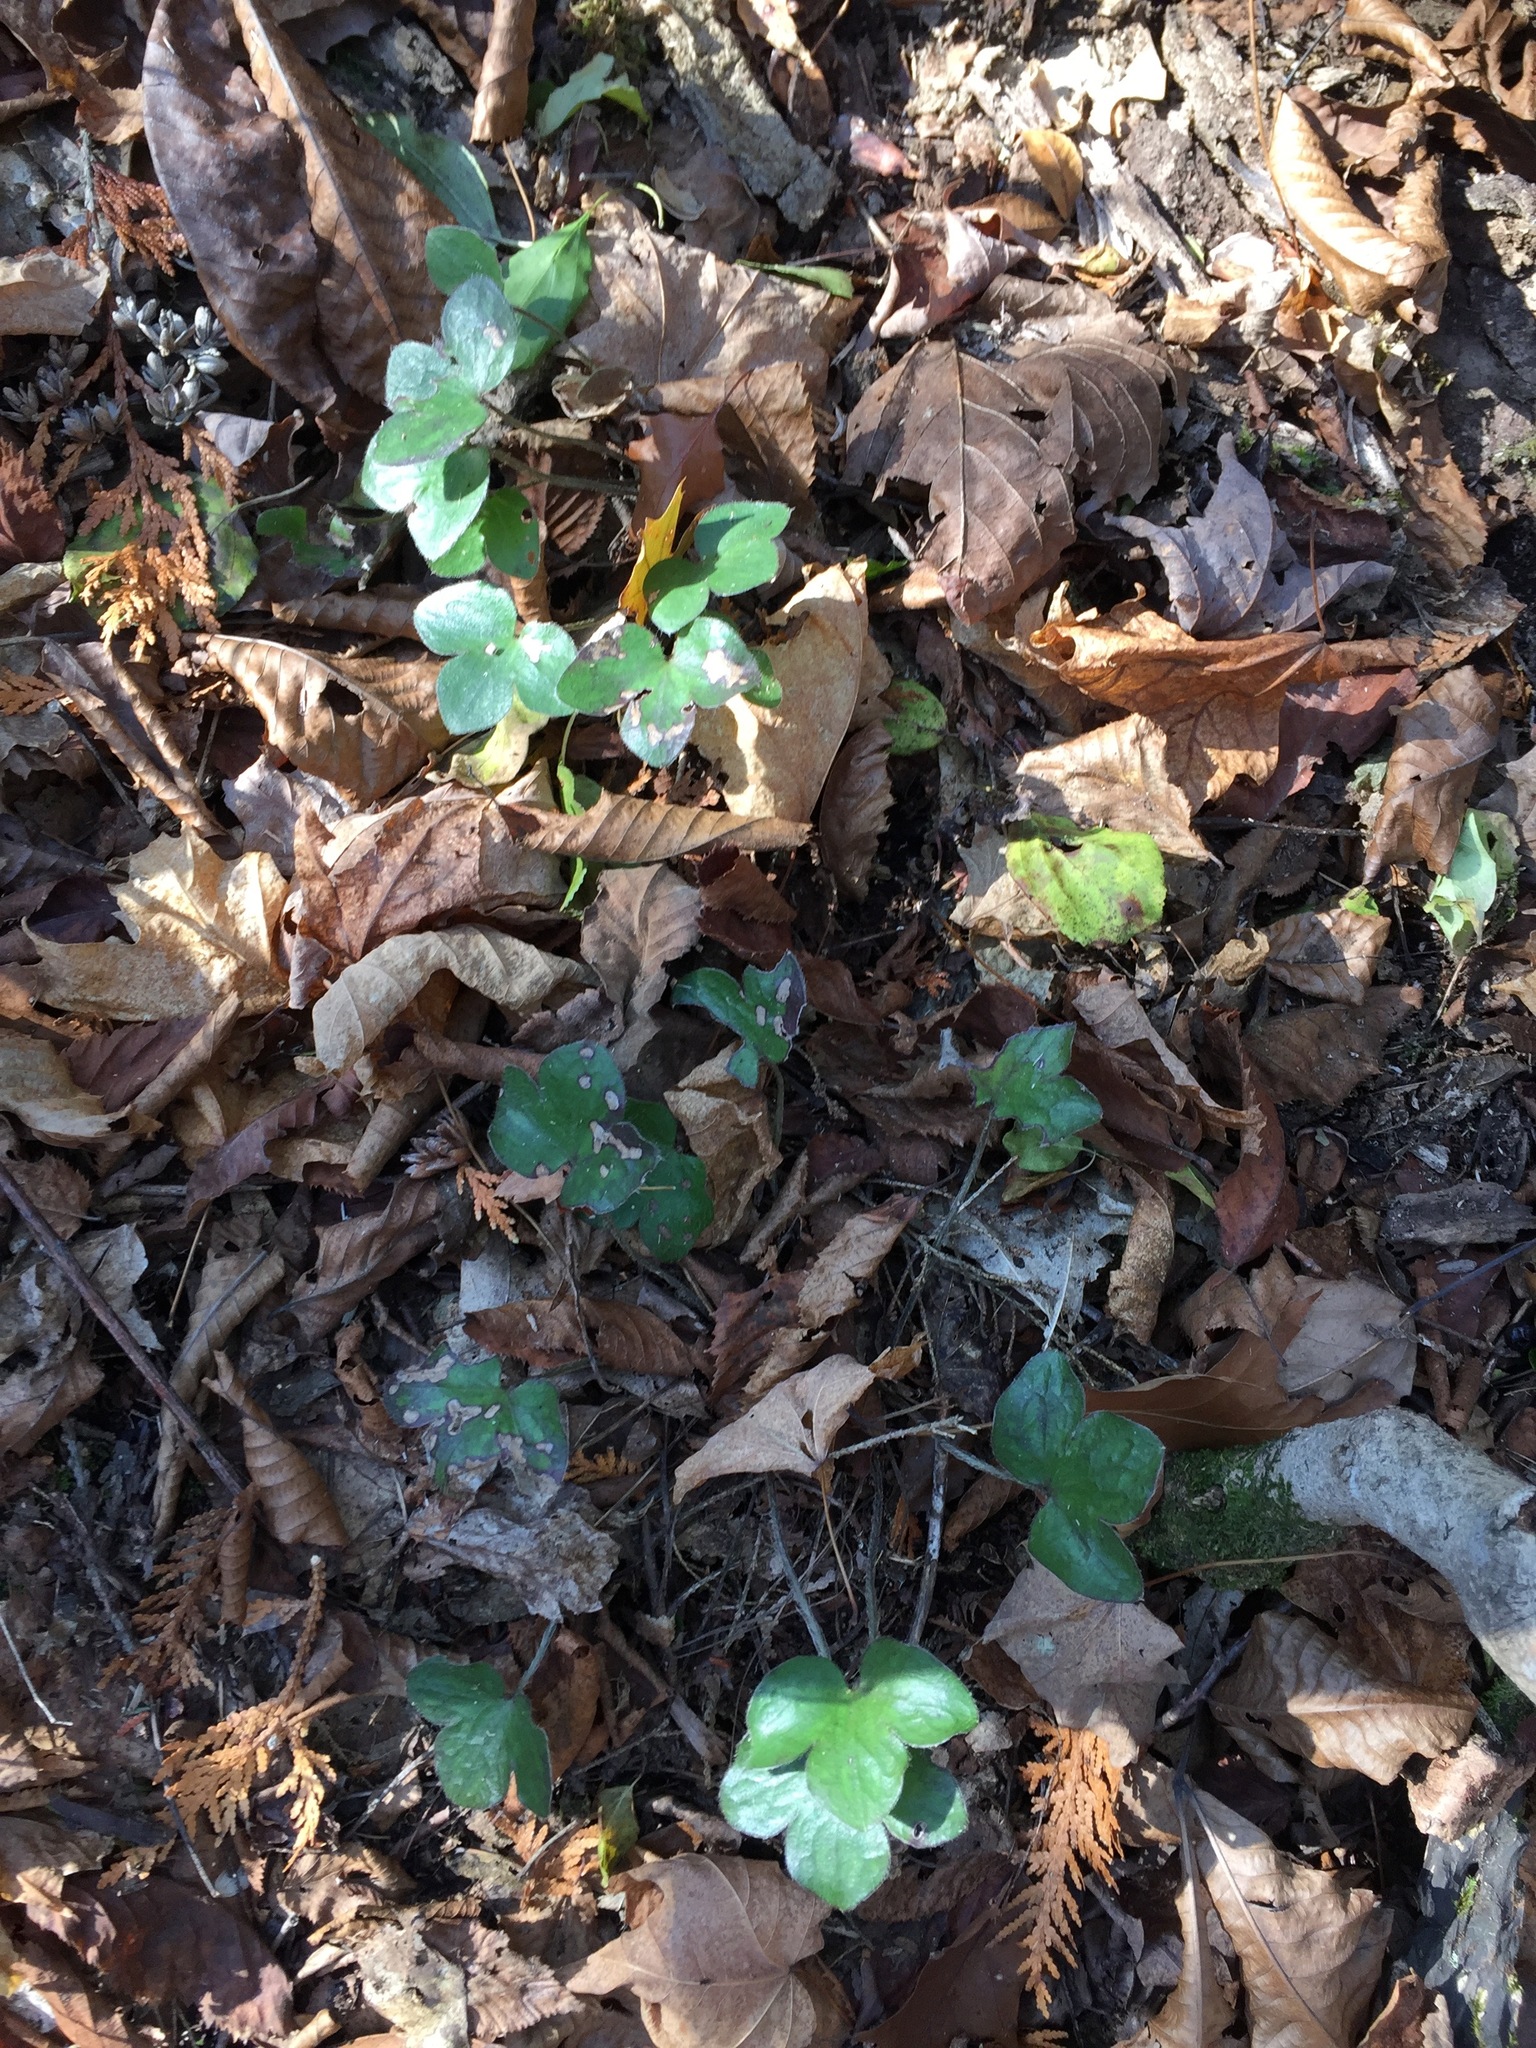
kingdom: Plantae
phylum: Tracheophyta
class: Magnoliopsida
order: Ranunculales
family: Ranunculaceae
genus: Hepatica
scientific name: Hepatica americana
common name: American hepatica
